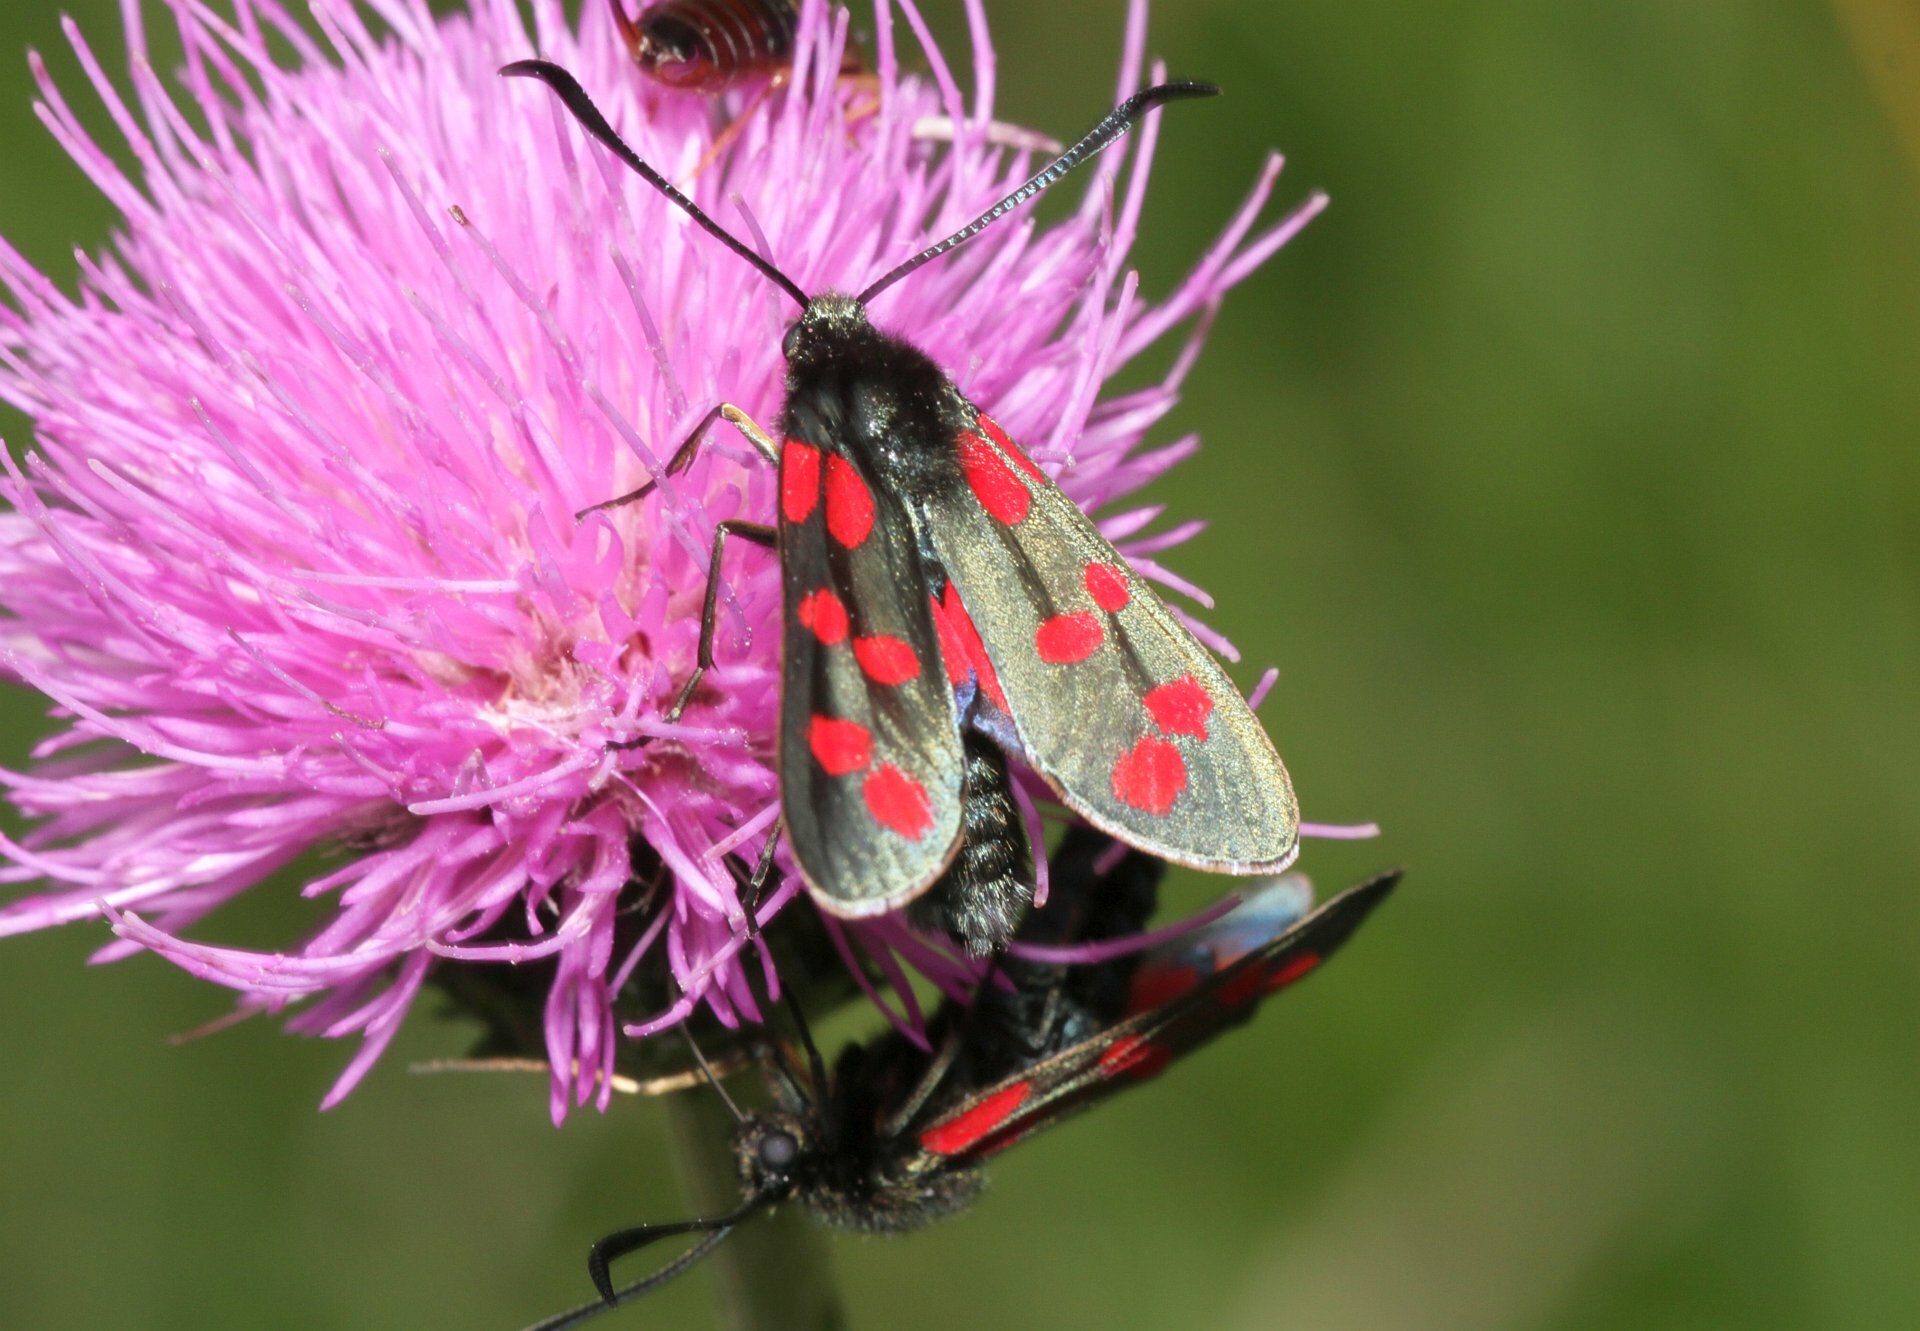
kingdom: Animalia
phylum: Arthropoda
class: Insecta
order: Lepidoptera
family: Zygaenidae
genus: Zygaena
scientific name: Zygaena filipendulae
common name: Six-spot burnet
